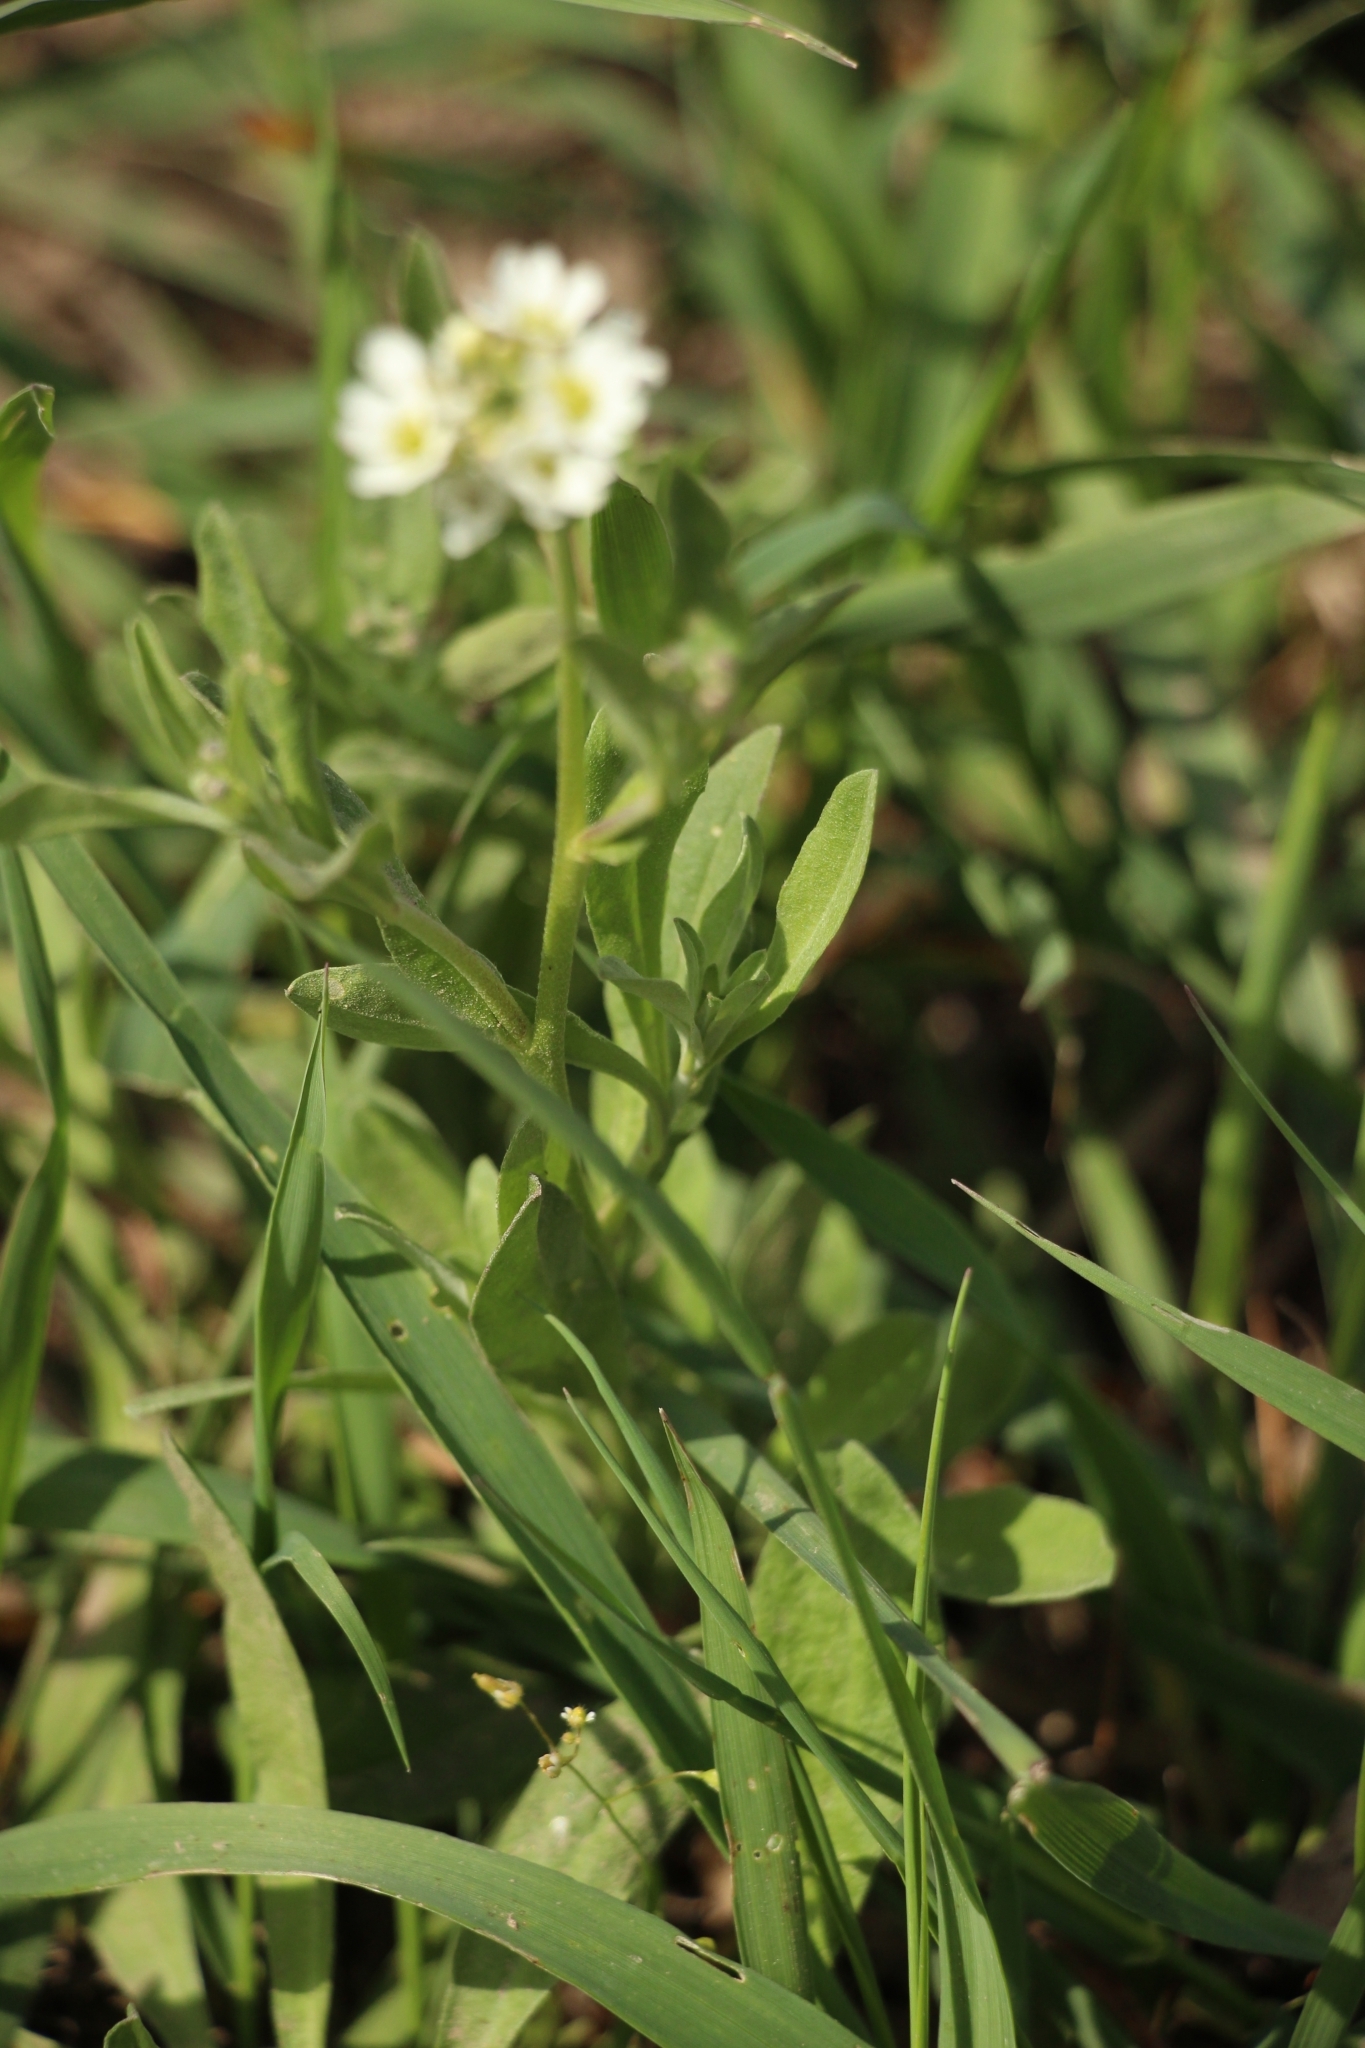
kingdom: Plantae
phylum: Tracheophyta
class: Magnoliopsida
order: Brassicales
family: Brassicaceae
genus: Berteroa
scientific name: Berteroa incana
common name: Hoary alison
